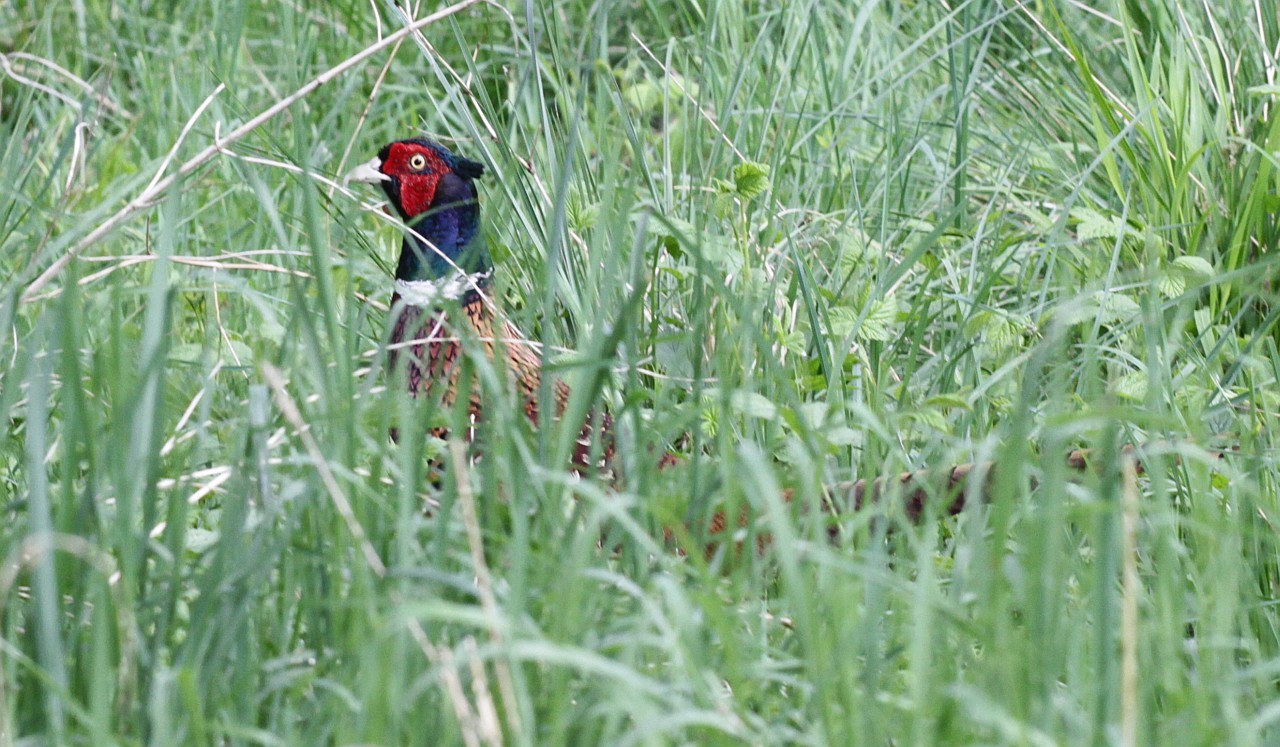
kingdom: Animalia
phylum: Chordata
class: Aves
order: Galliformes
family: Phasianidae
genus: Phasianus
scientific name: Phasianus colchicus
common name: Common pheasant
